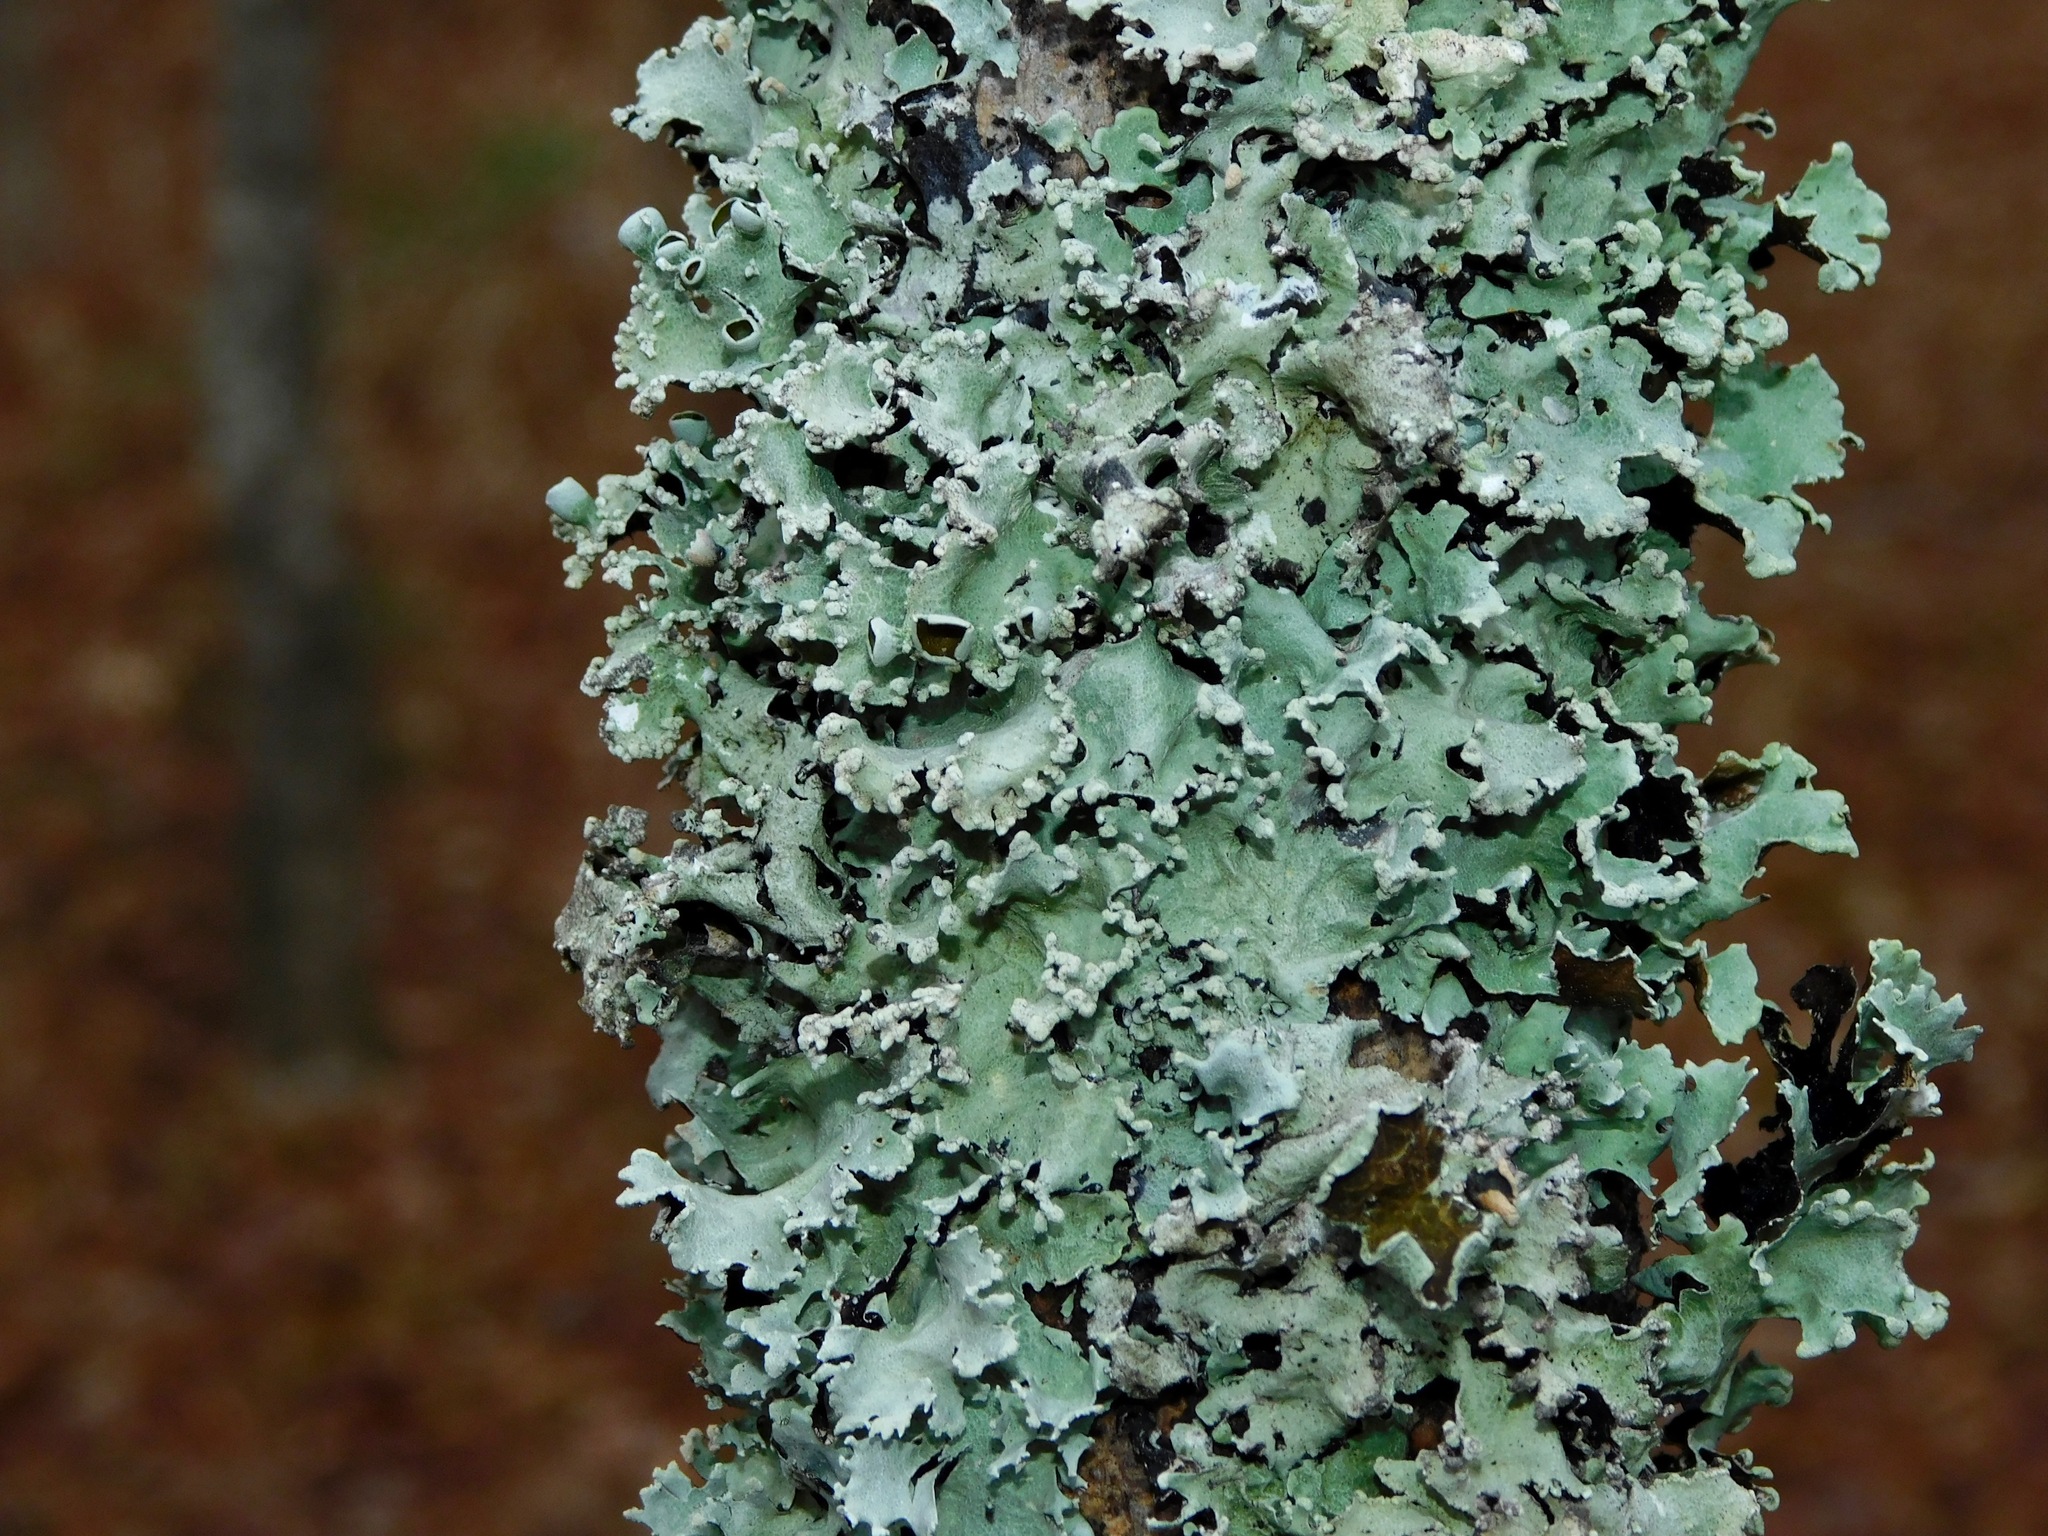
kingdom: Fungi
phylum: Ascomycota
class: Lecanoromycetes
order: Lecanorales
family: Parmeliaceae
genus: Parmotrema
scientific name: Parmotrema simulans
